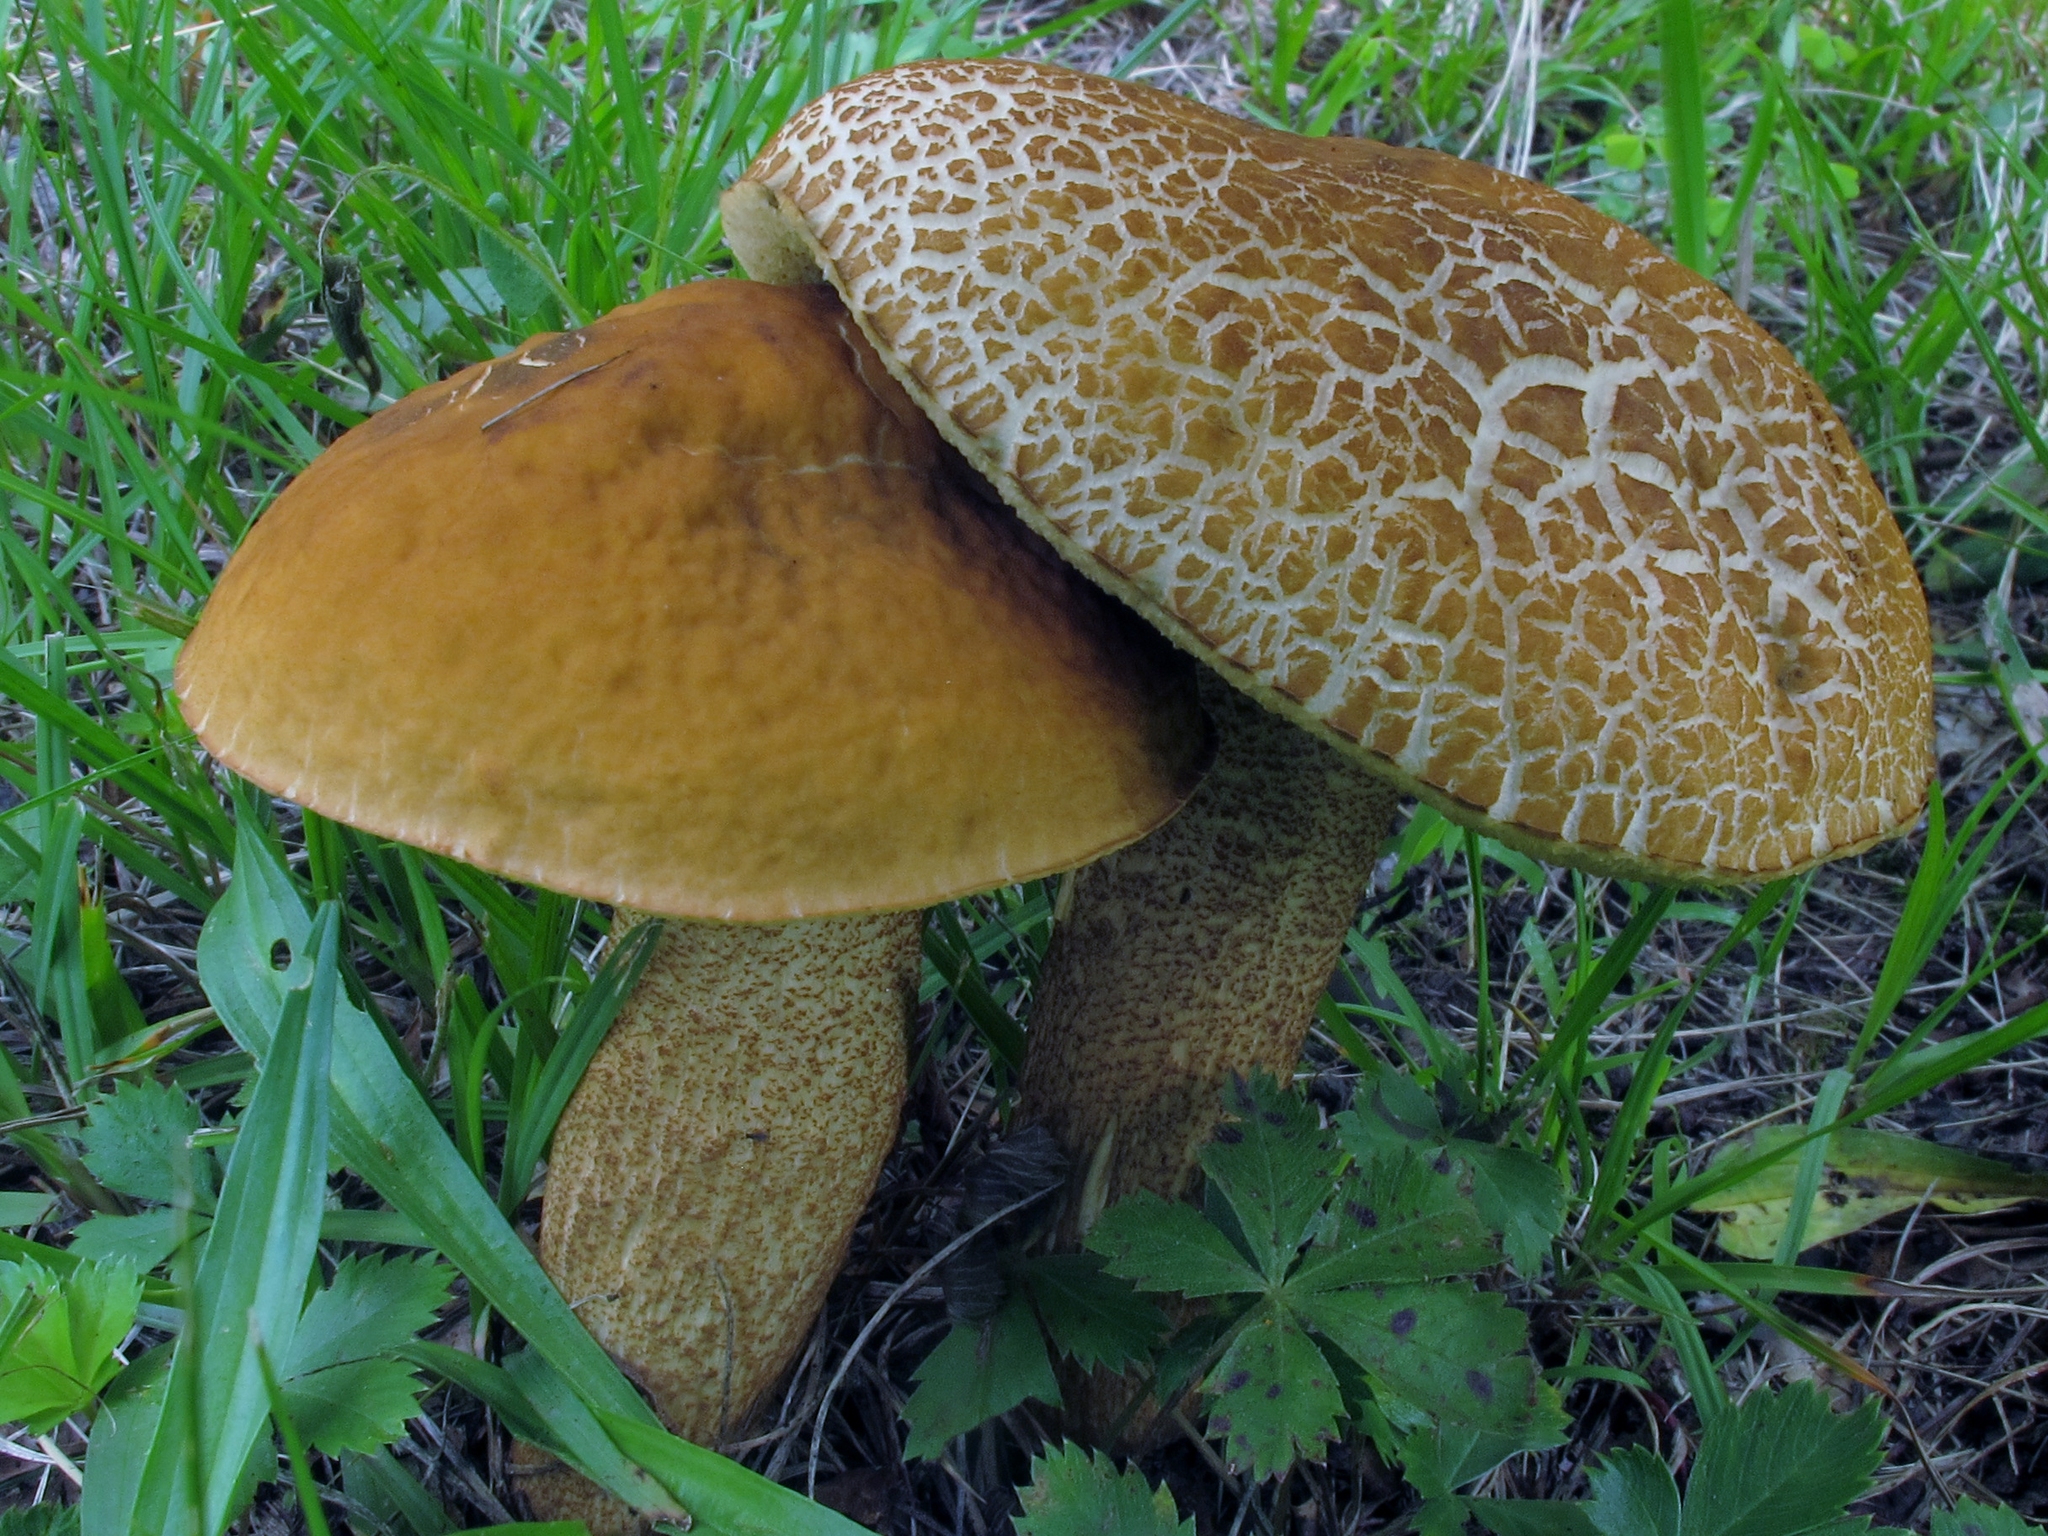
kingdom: Fungi
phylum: Basidiomycota
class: Agaricomycetes
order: Boletales
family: Boletaceae
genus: Leccinellum
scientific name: Leccinellum rugosiceps
